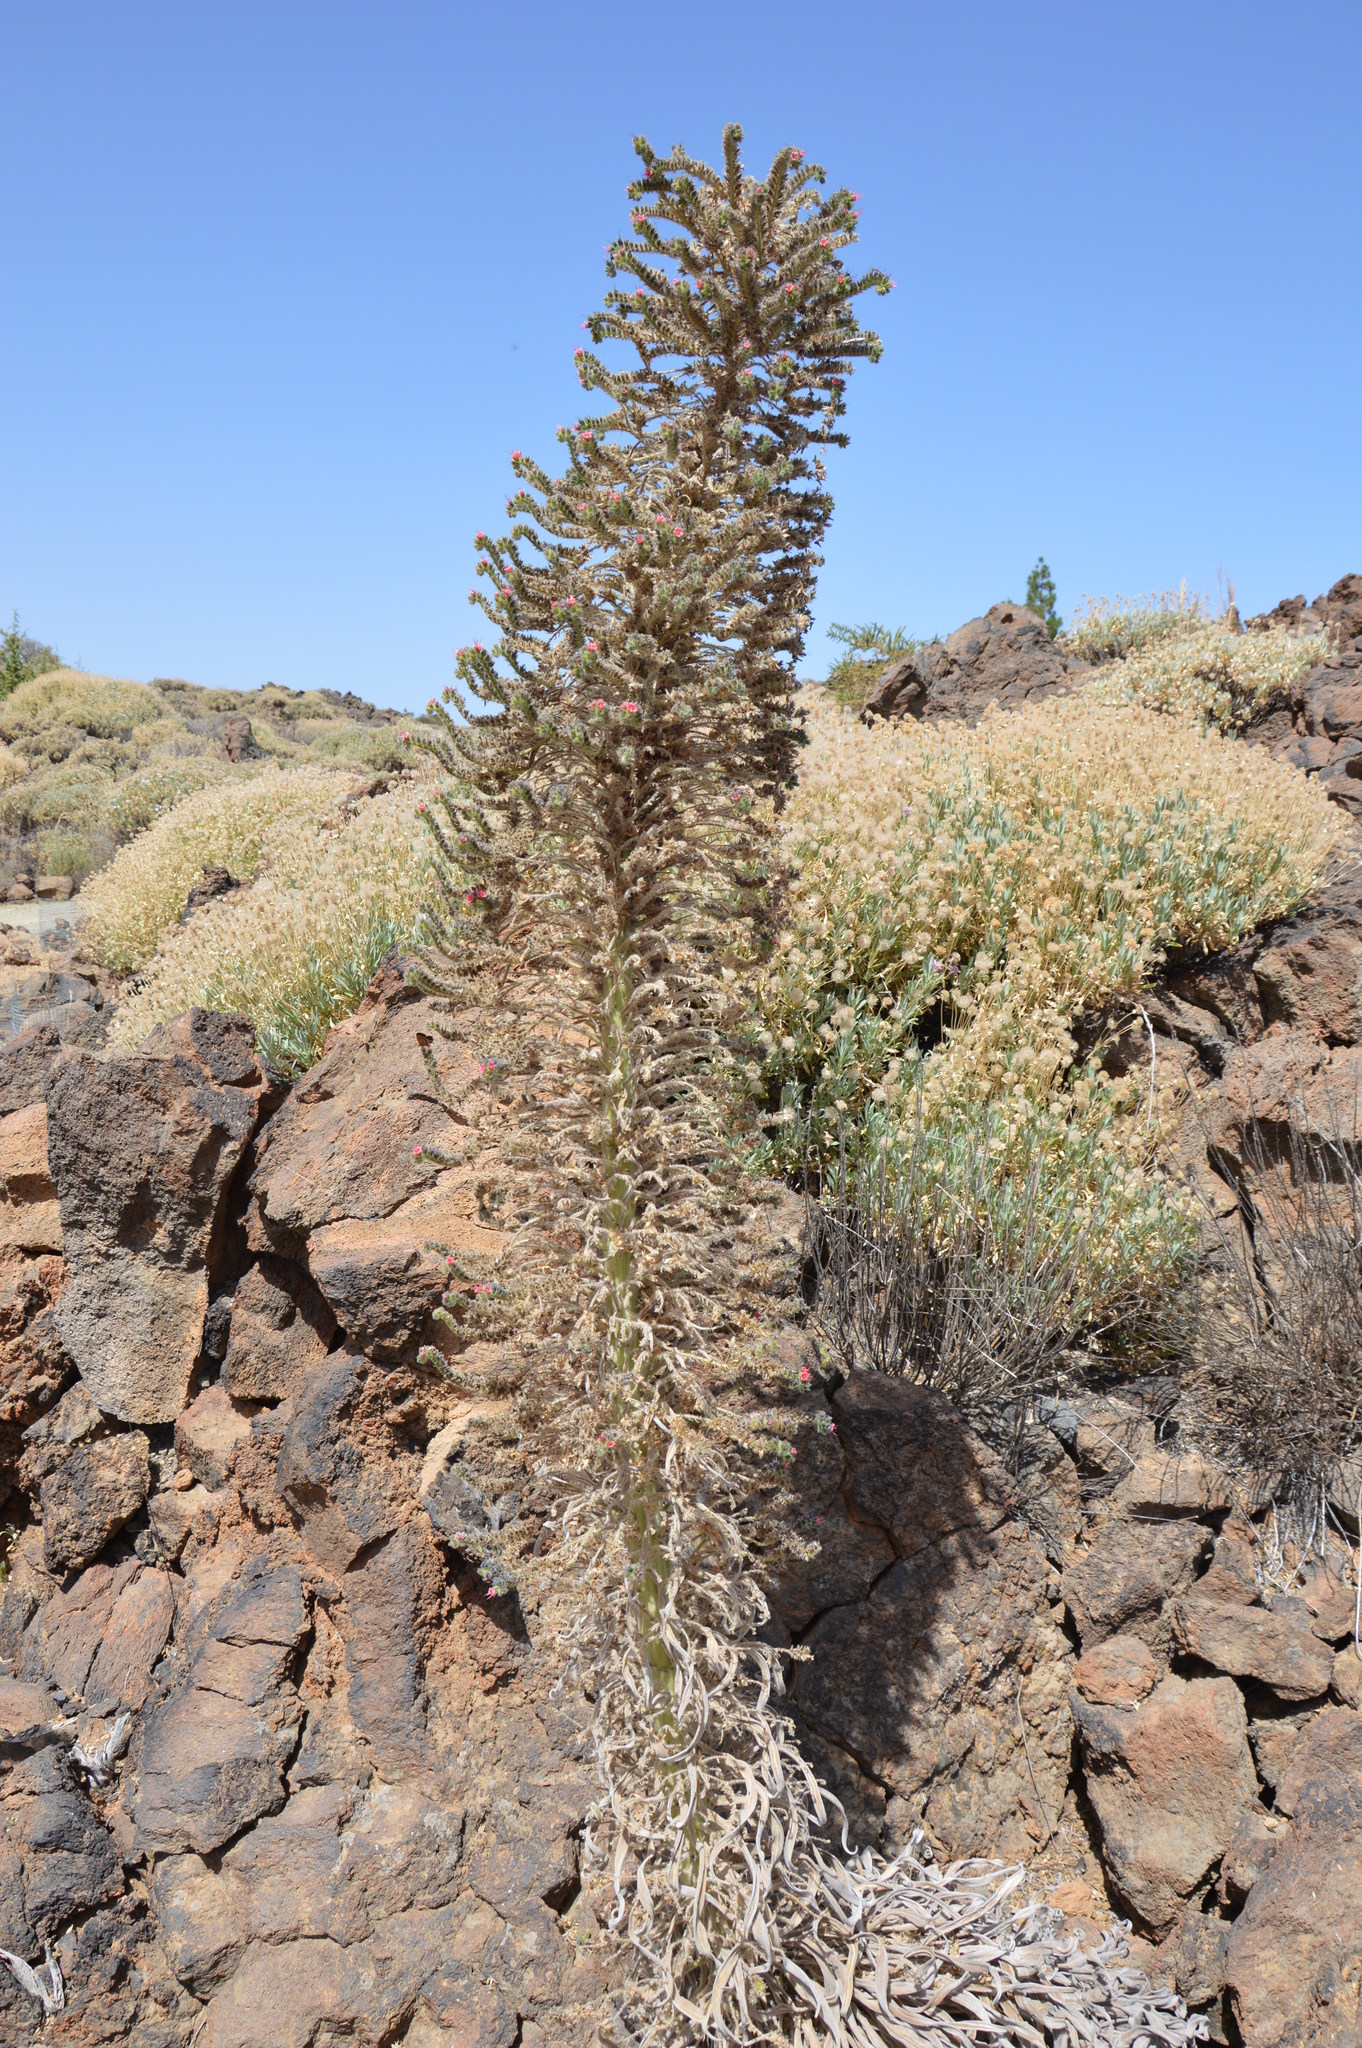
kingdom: Plantae
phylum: Tracheophyta
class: Magnoliopsida
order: Boraginales
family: Boraginaceae
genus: Echium
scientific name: Echium wildpretii
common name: Tower-of-jewels
